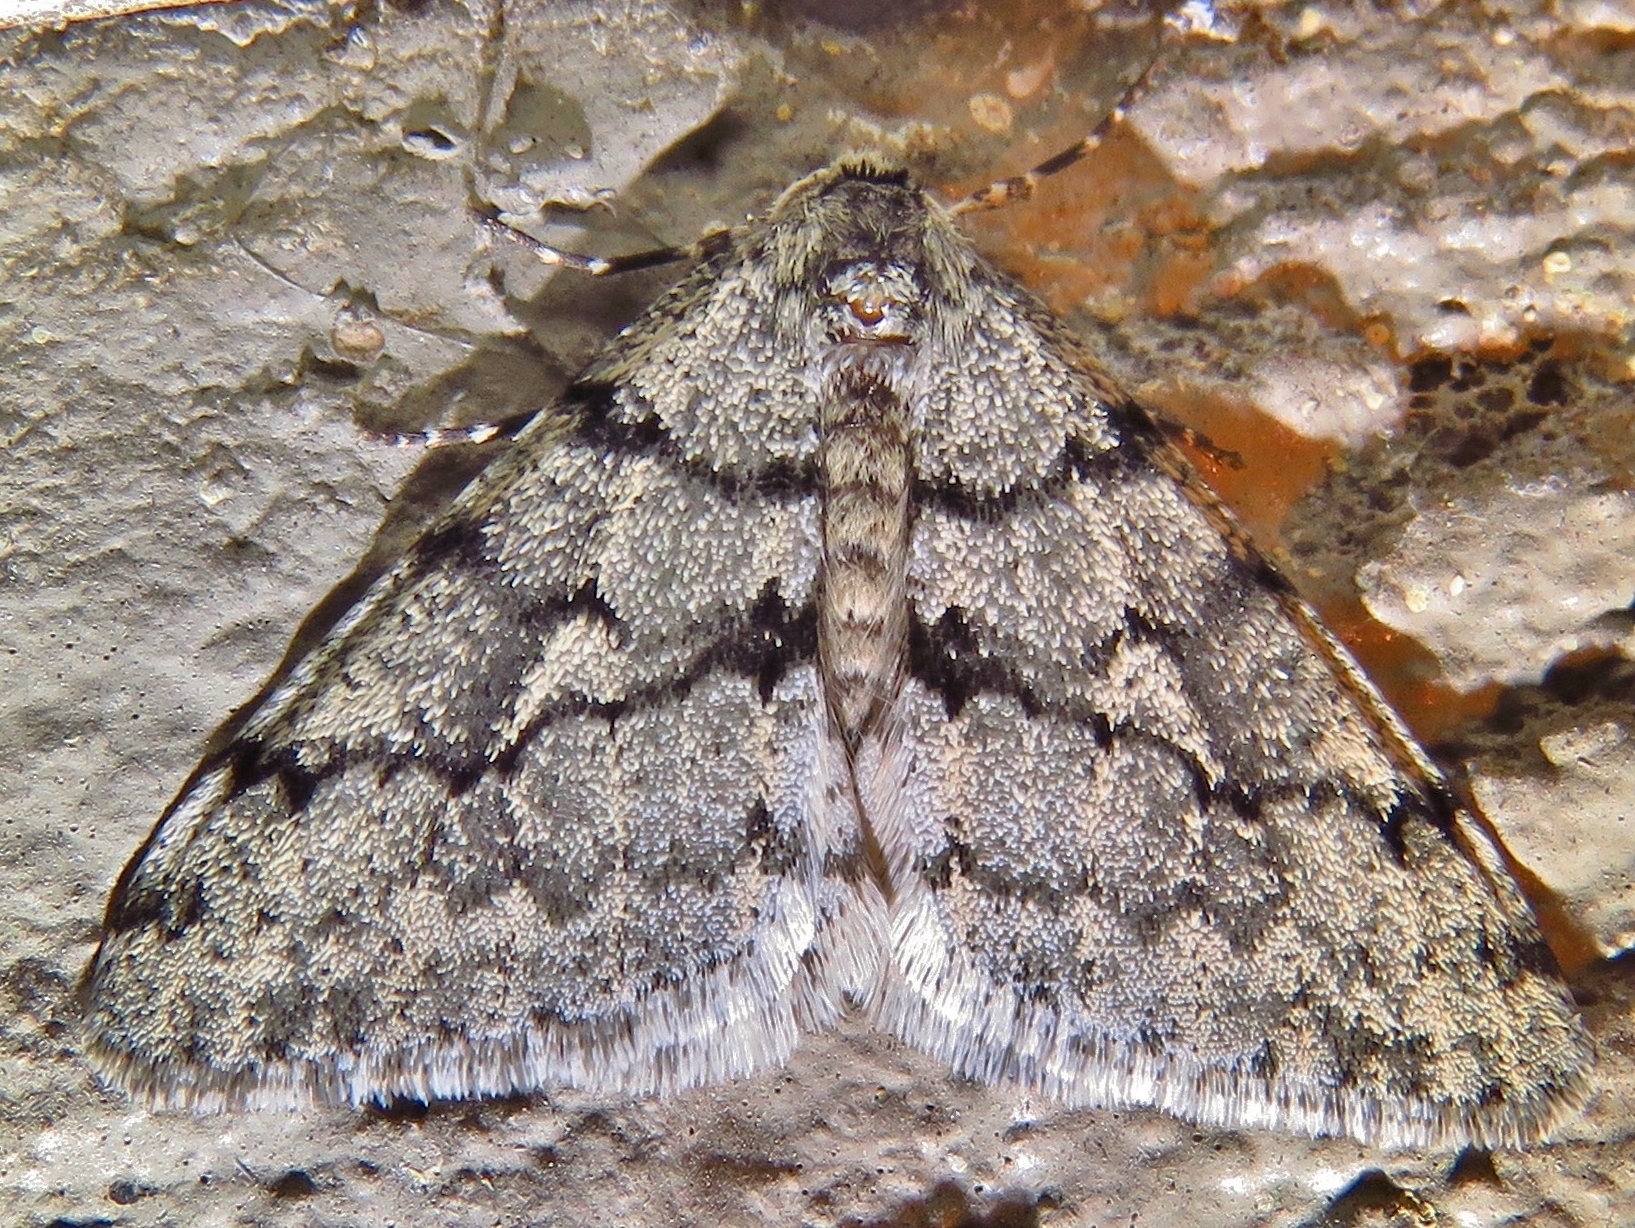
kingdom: Animalia
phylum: Arthropoda
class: Insecta
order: Lepidoptera
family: Geometridae
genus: Phigalia
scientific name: Phigalia denticulata
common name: Toothed phigalia
